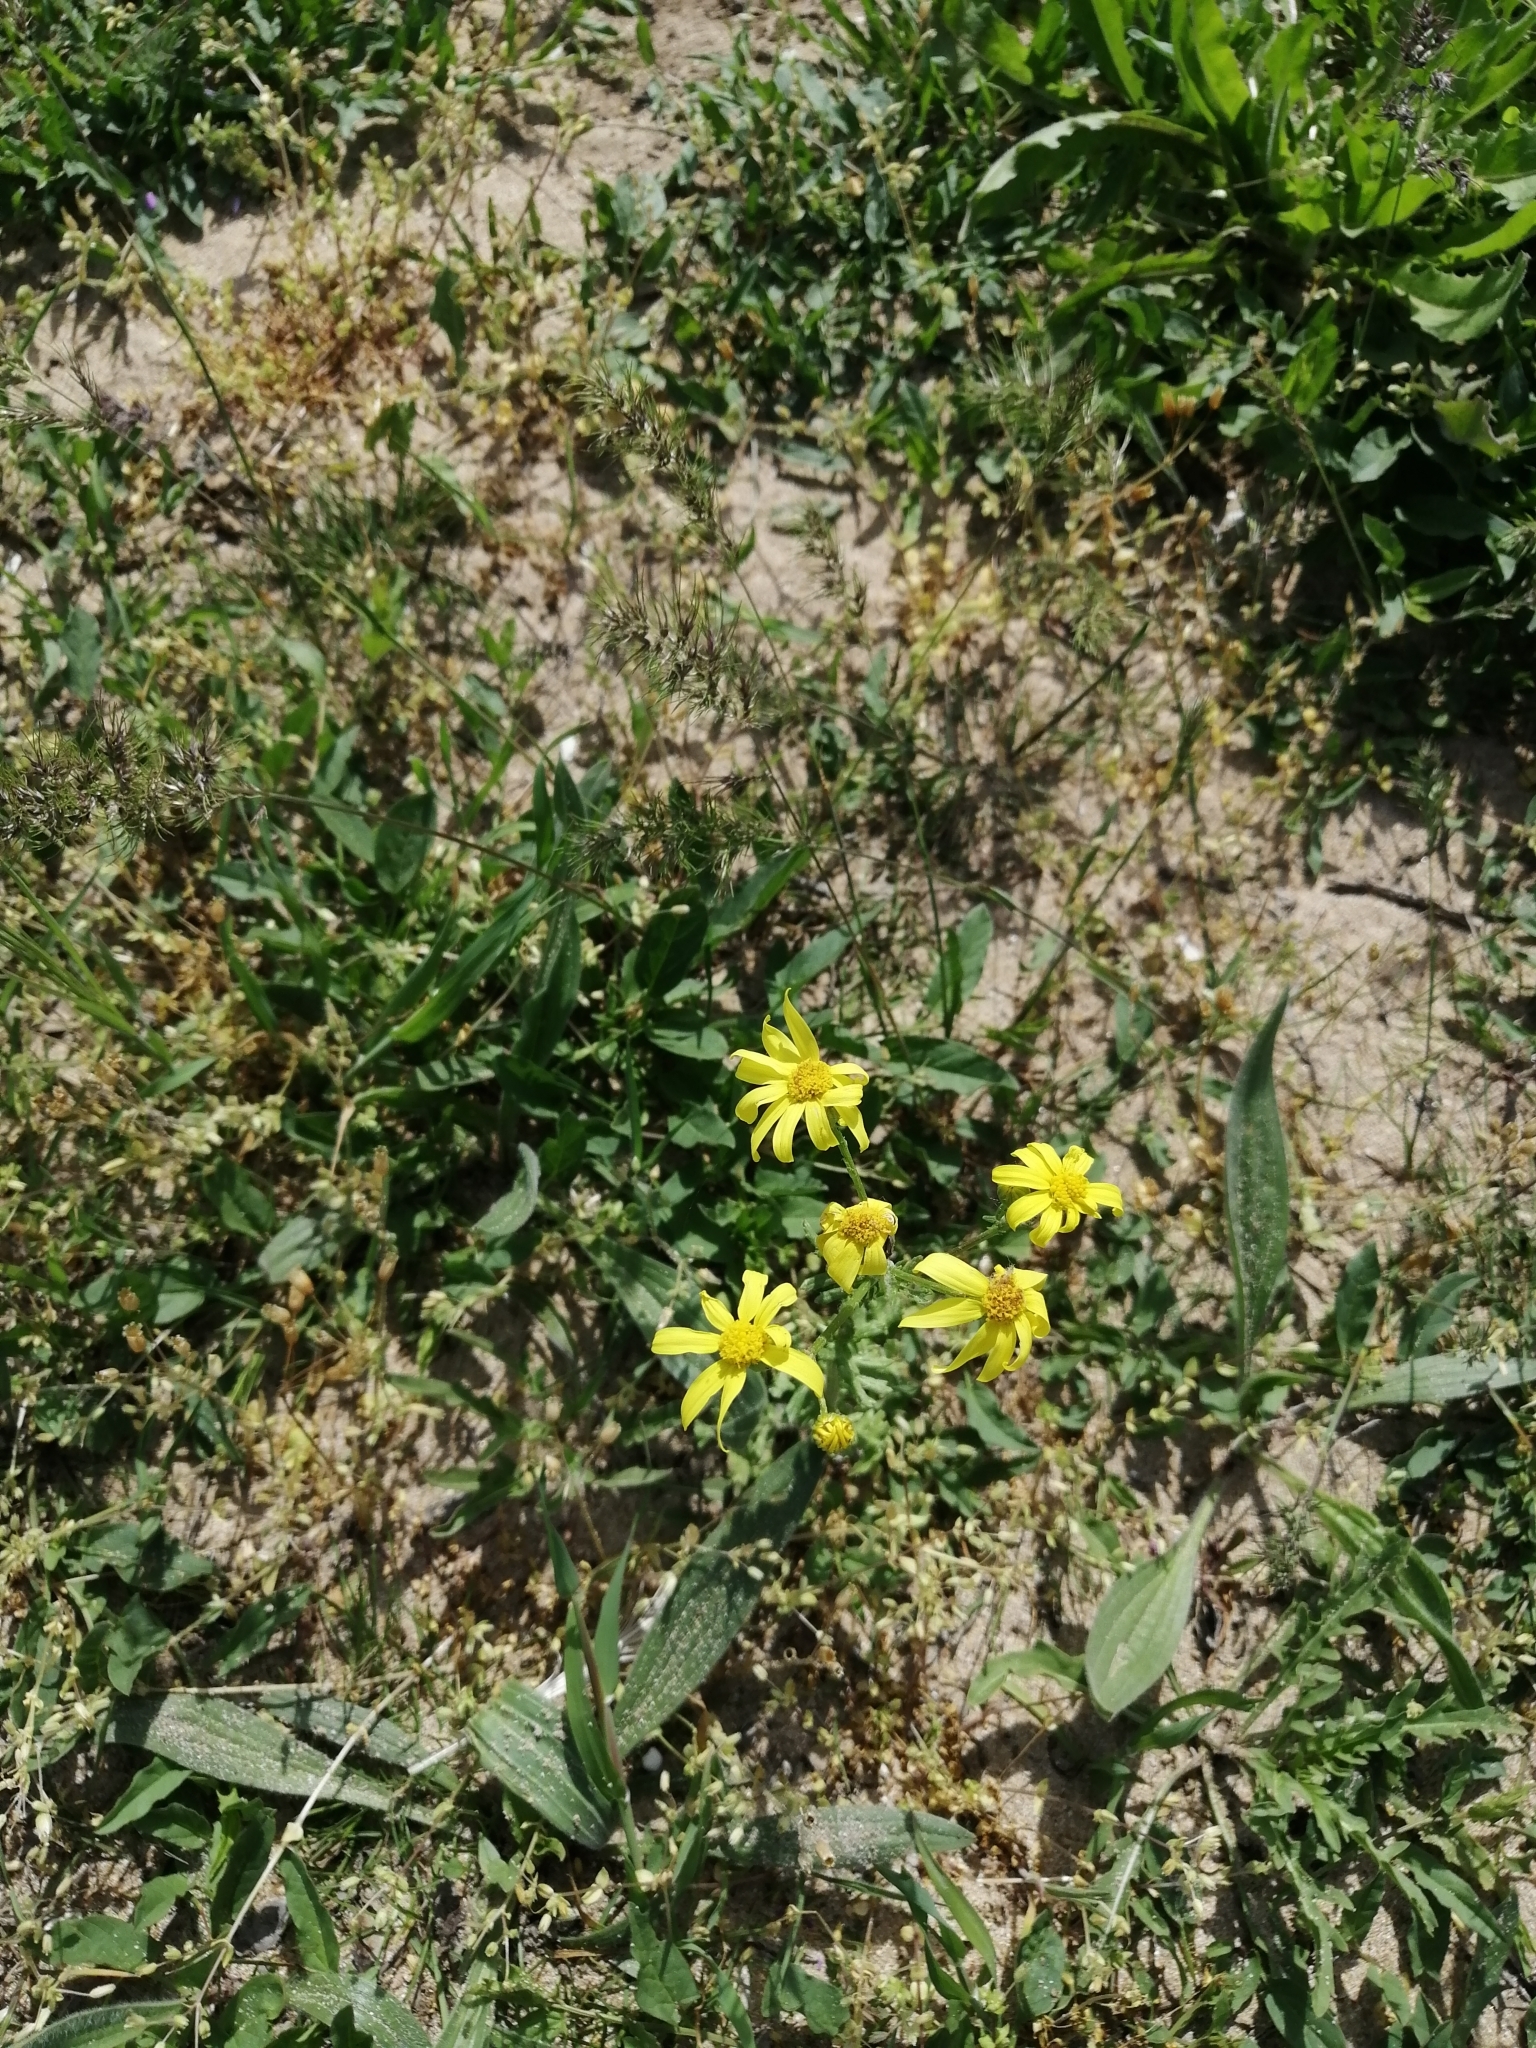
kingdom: Plantae
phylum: Tracheophyta
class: Magnoliopsida
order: Asterales
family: Asteraceae
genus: Senecio
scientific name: Senecio vernalis
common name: Eastern groundsel
